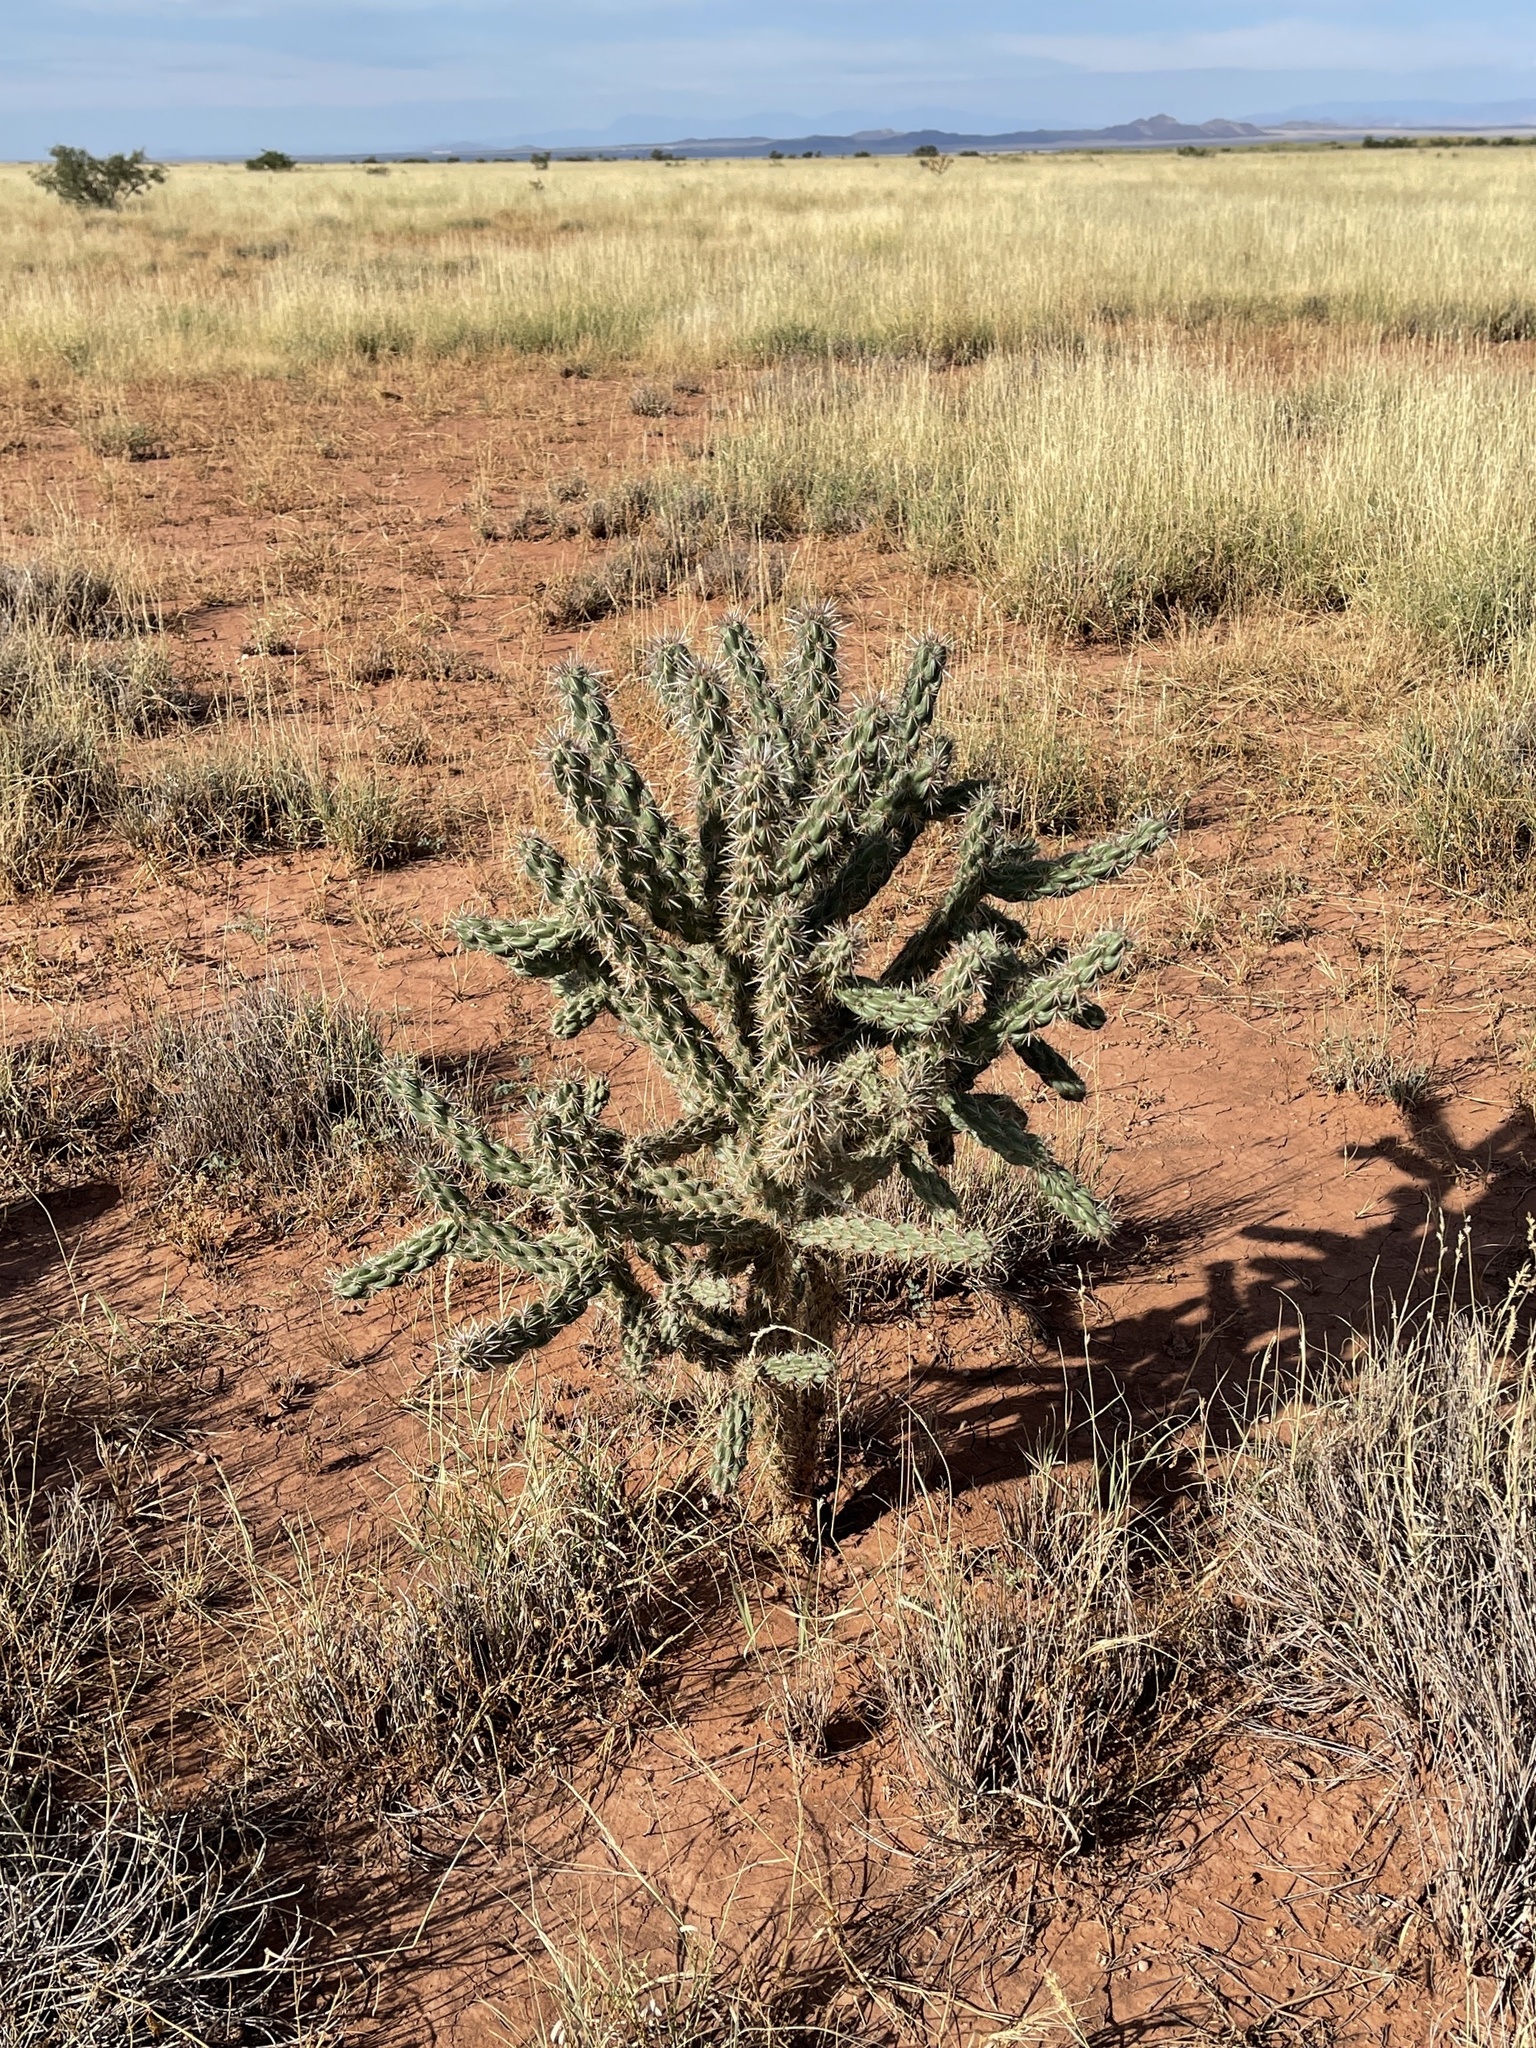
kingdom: Plantae
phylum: Tracheophyta
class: Magnoliopsida
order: Caryophyllales
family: Cactaceae
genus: Cylindropuntia
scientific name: Cylindropuntia imbricata
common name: Candelabrum cactus
